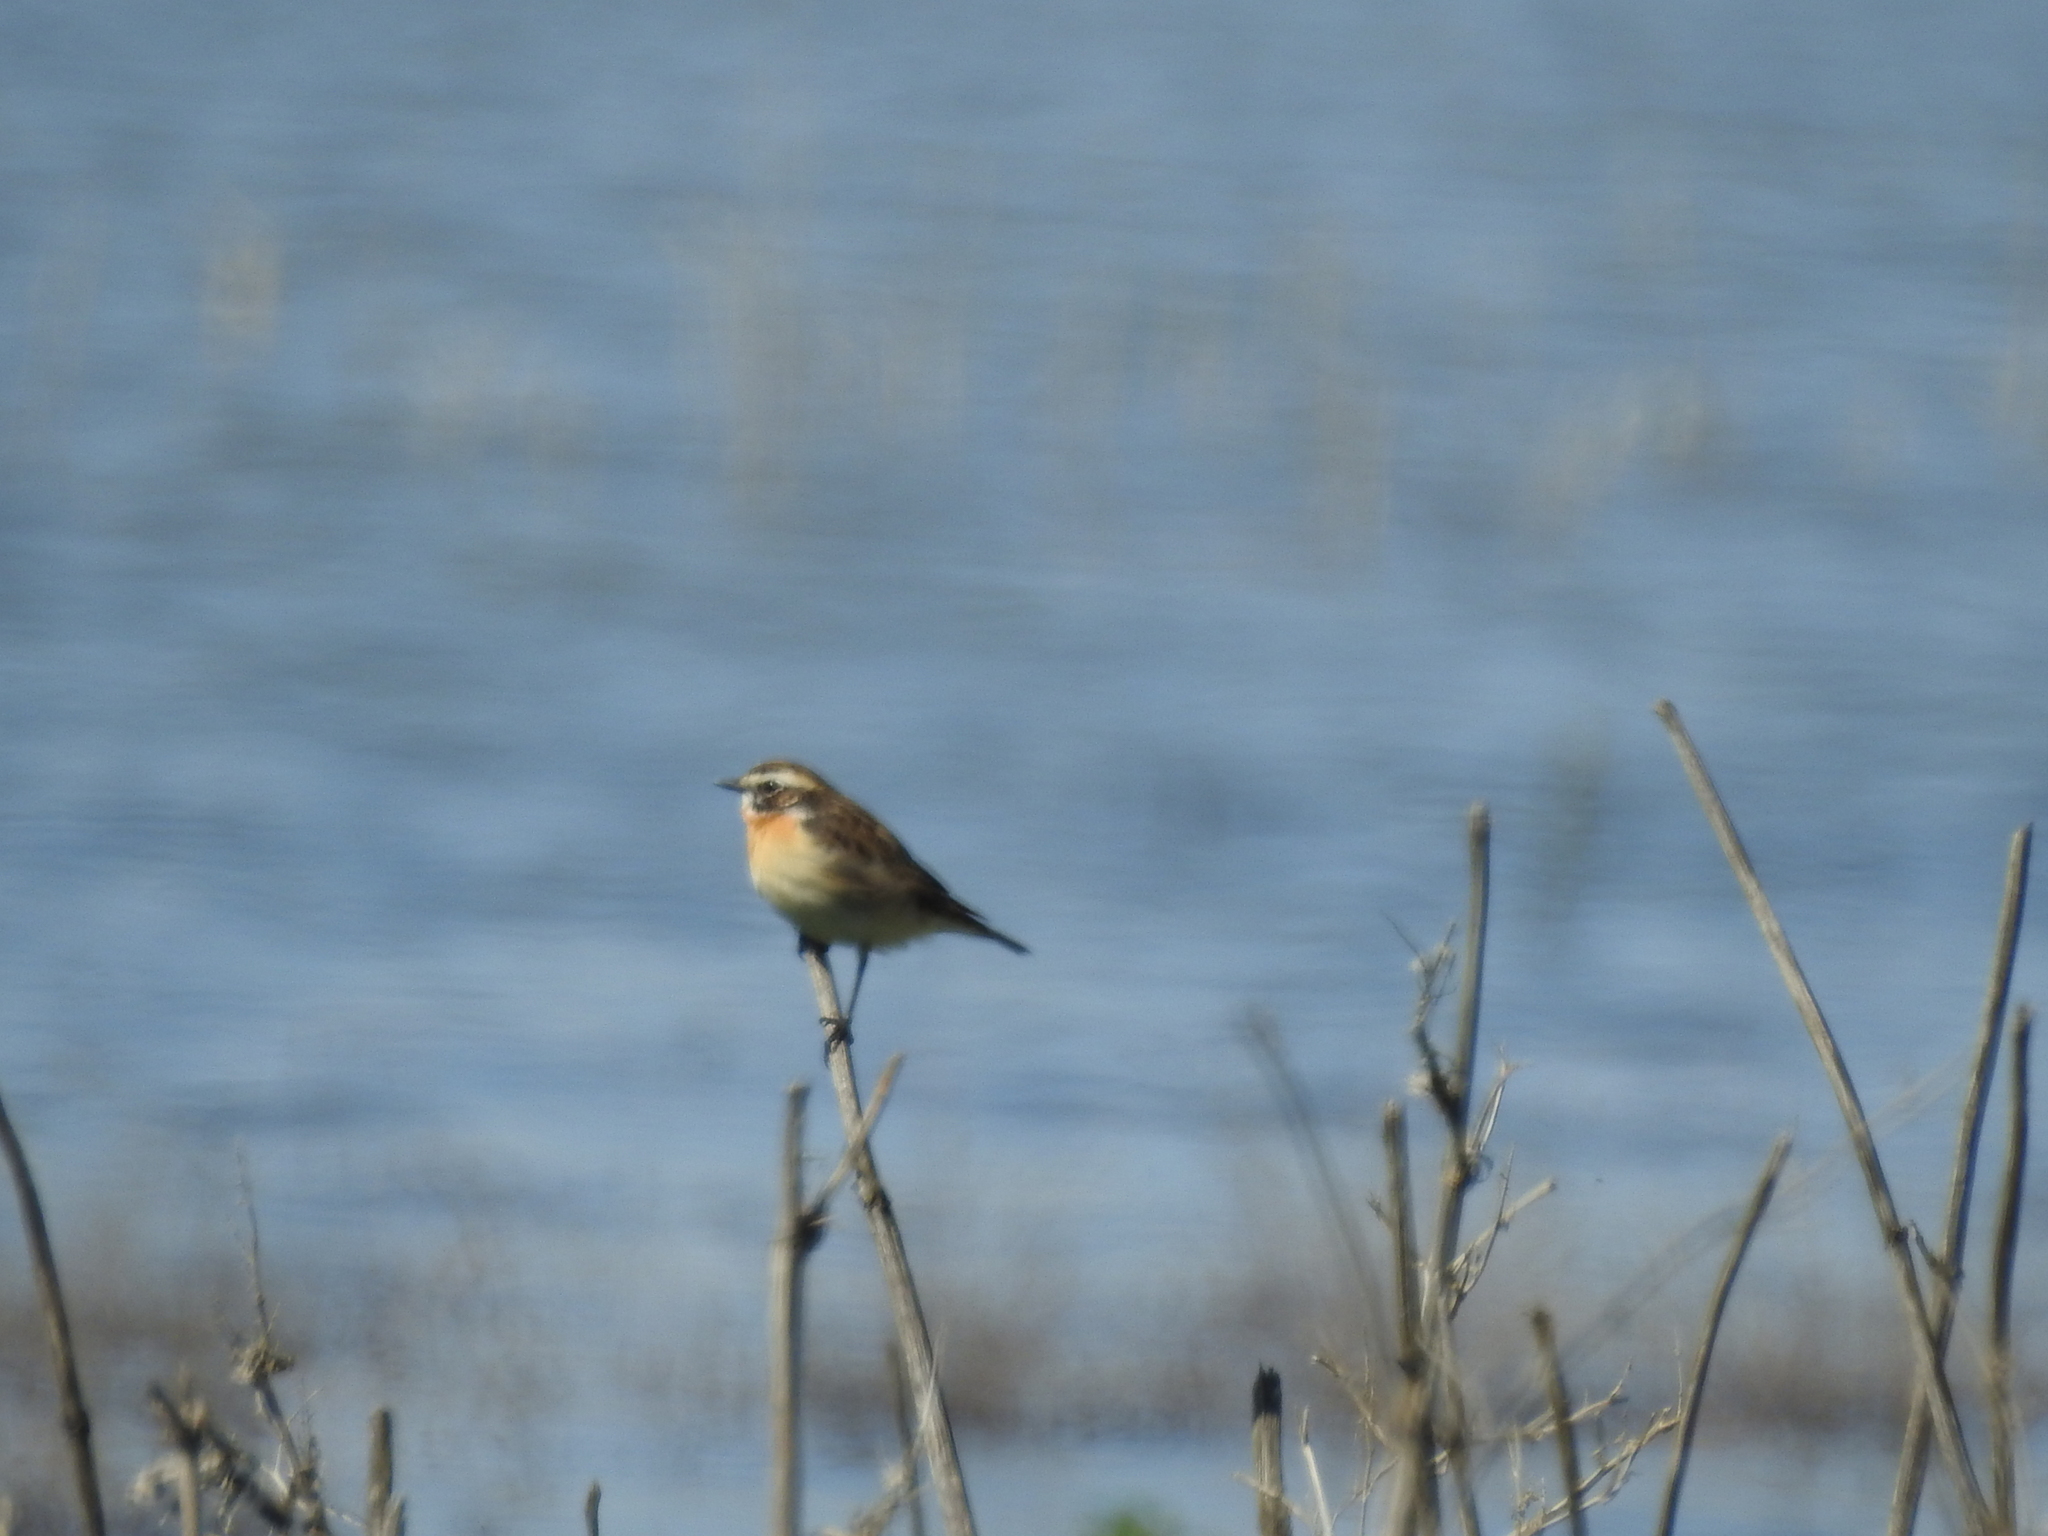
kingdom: Animalia
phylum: Chordata
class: Aves
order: Passeriformes
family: Muscicapidae
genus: Saxicola
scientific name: Saxicola rubetra
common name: Whinchat
